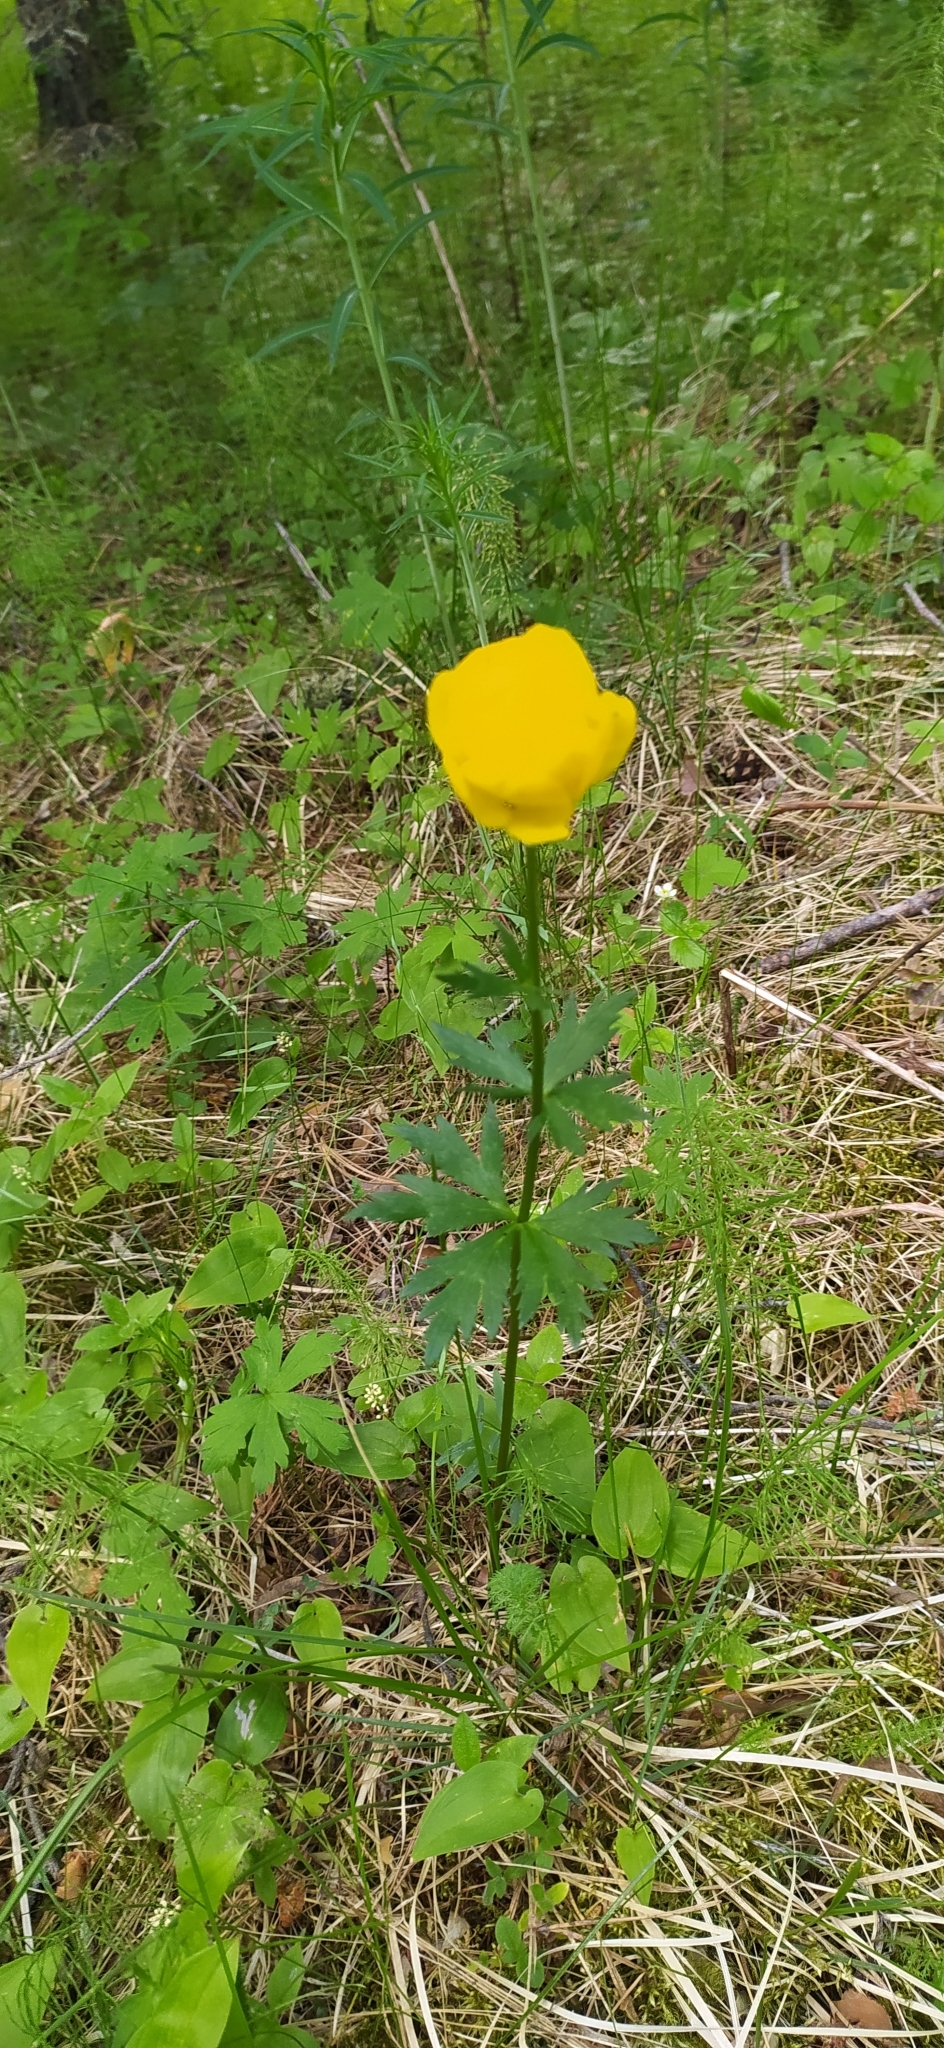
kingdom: Plantae
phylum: Tracheophyta
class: Magnoliopsida
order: Ranunculales
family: Ranunculaceae
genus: Trollius
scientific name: Trollius europaeus
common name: European globeflower
